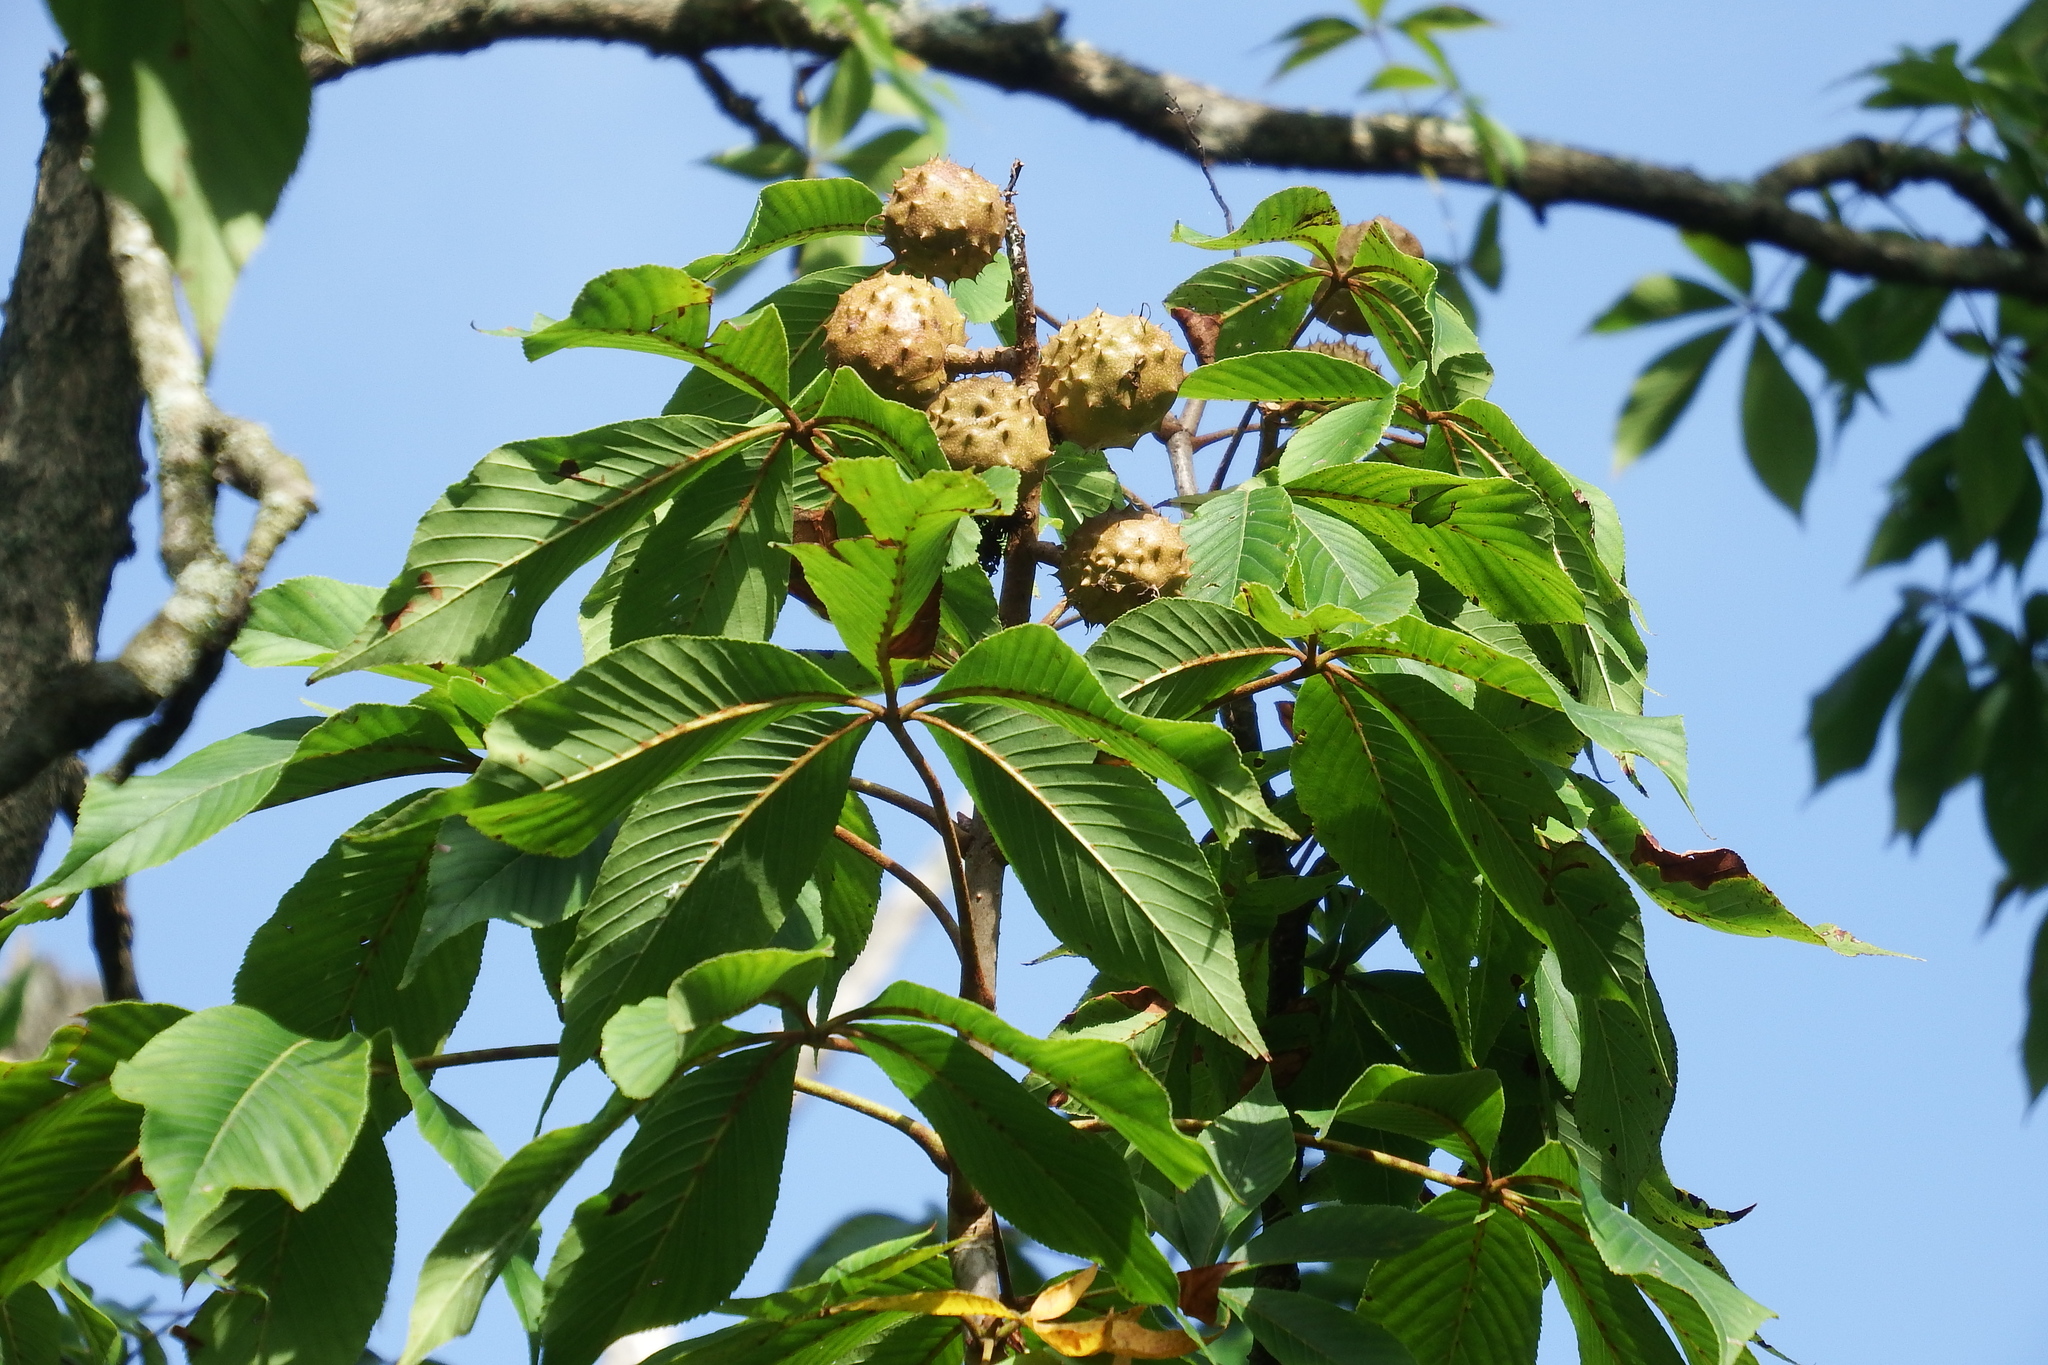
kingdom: Plantae
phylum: Tracheophyta
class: Magnoliopsida
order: Sapindales
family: Sapindaceae
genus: Aesculus
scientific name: Aesculus glabra
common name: Ohio buckeye
